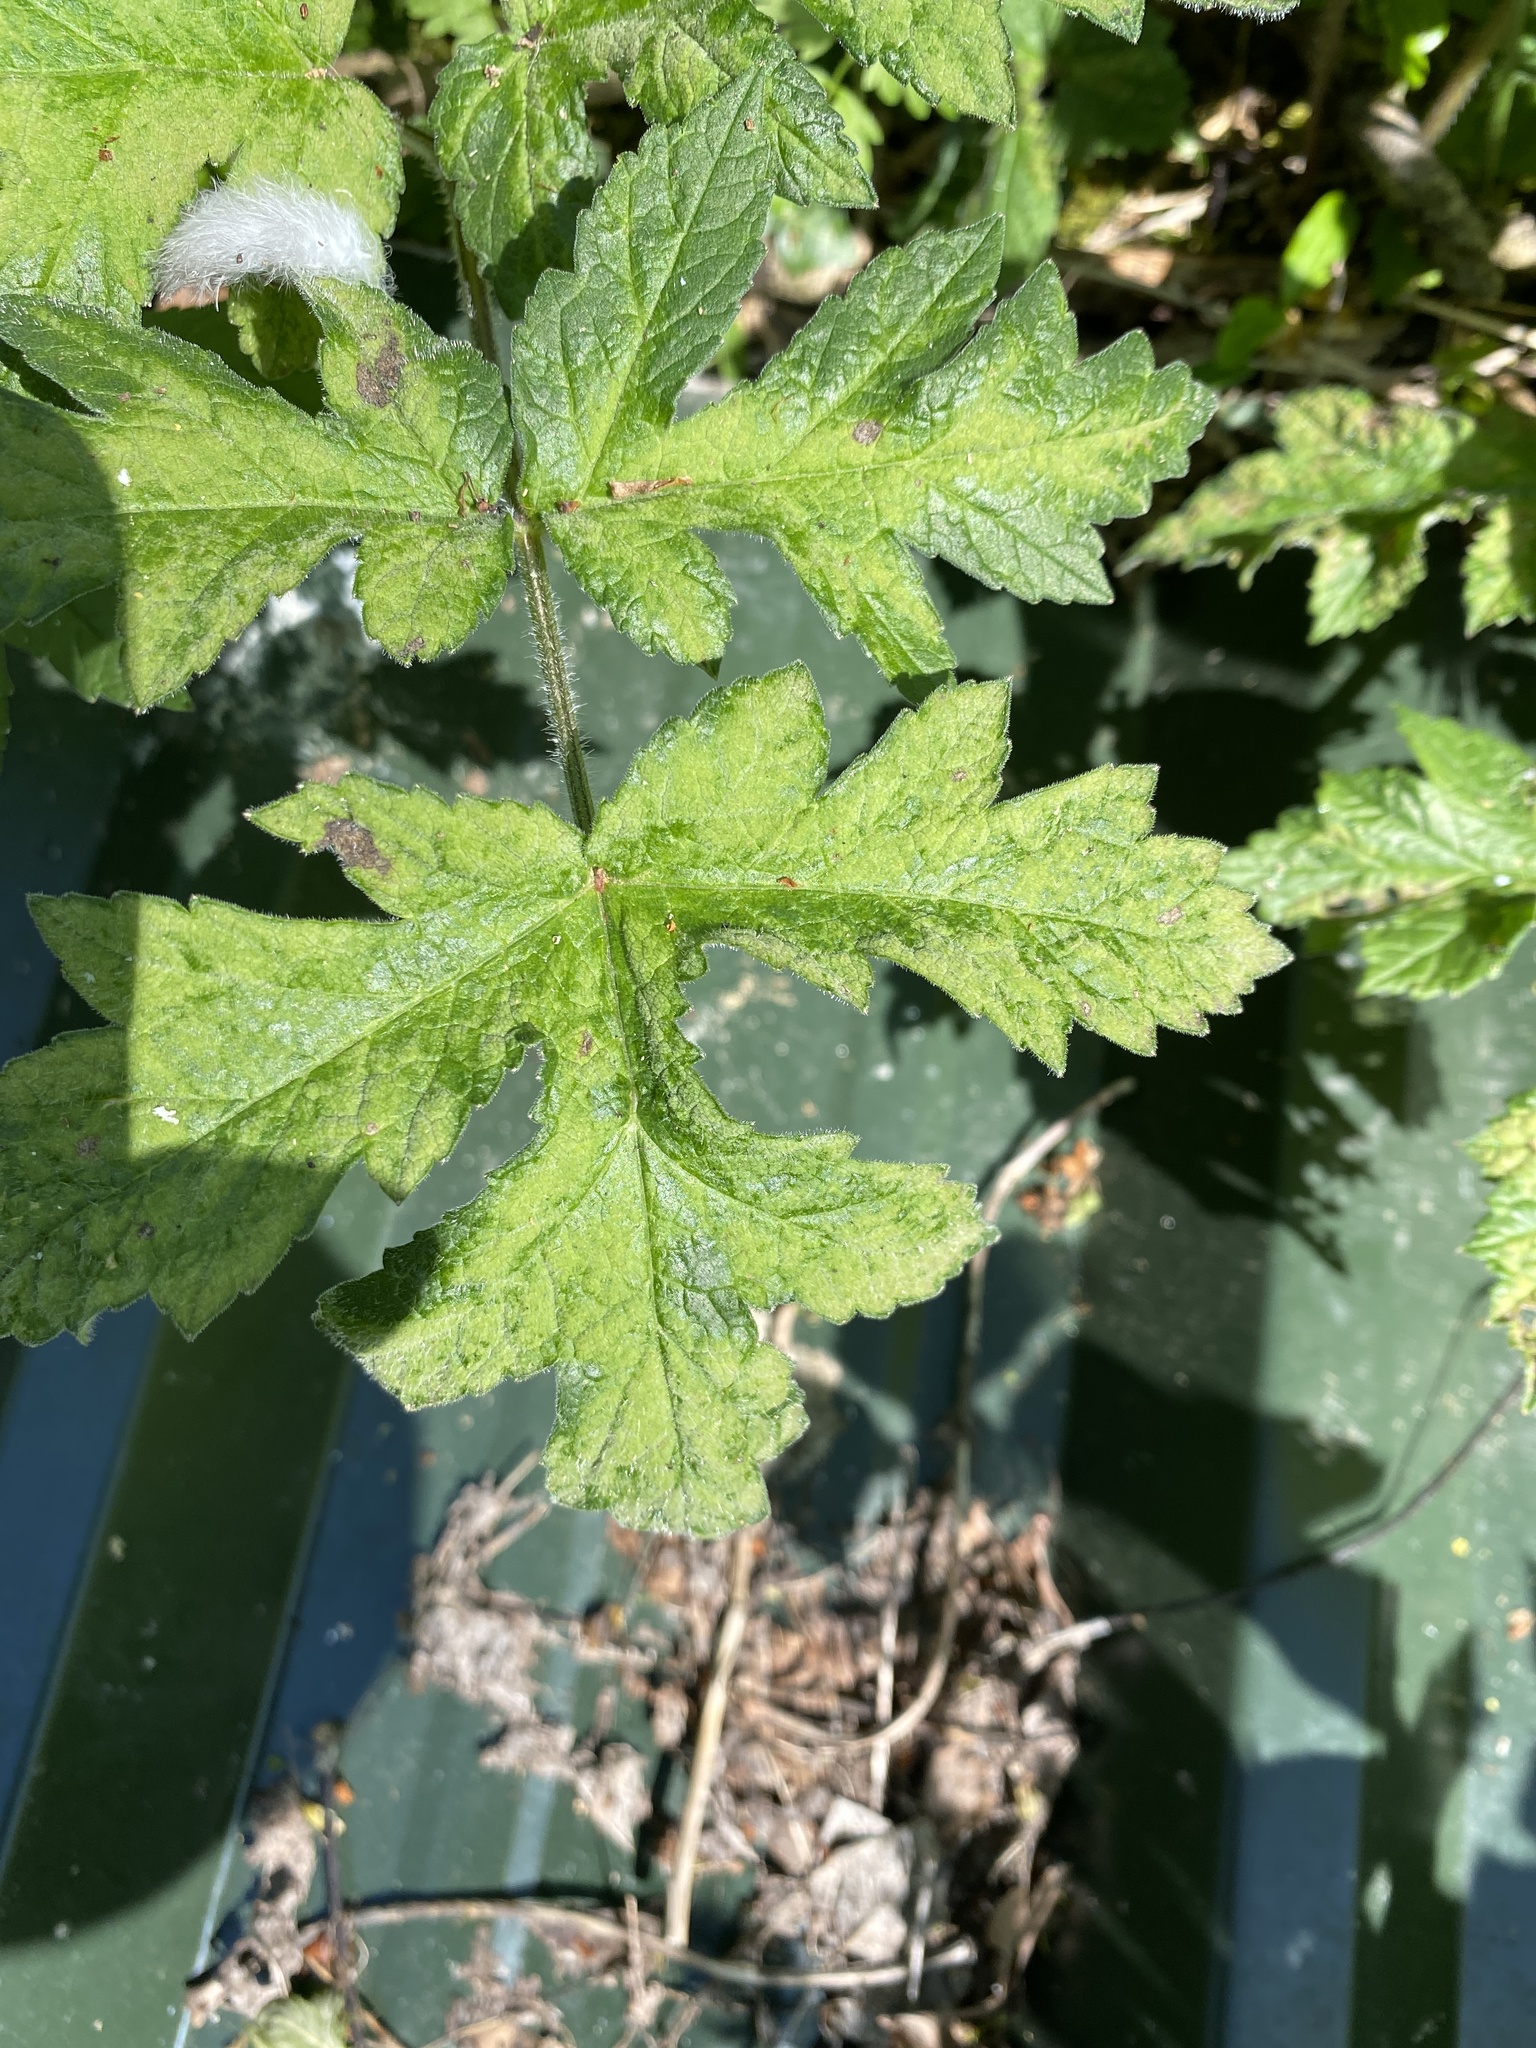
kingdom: Plantae
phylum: Tracheophyta
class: Magnoliopsida
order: Apiales
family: Apiaceae
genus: Heracleum
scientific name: Heracleum sphondylium
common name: Hogweed
